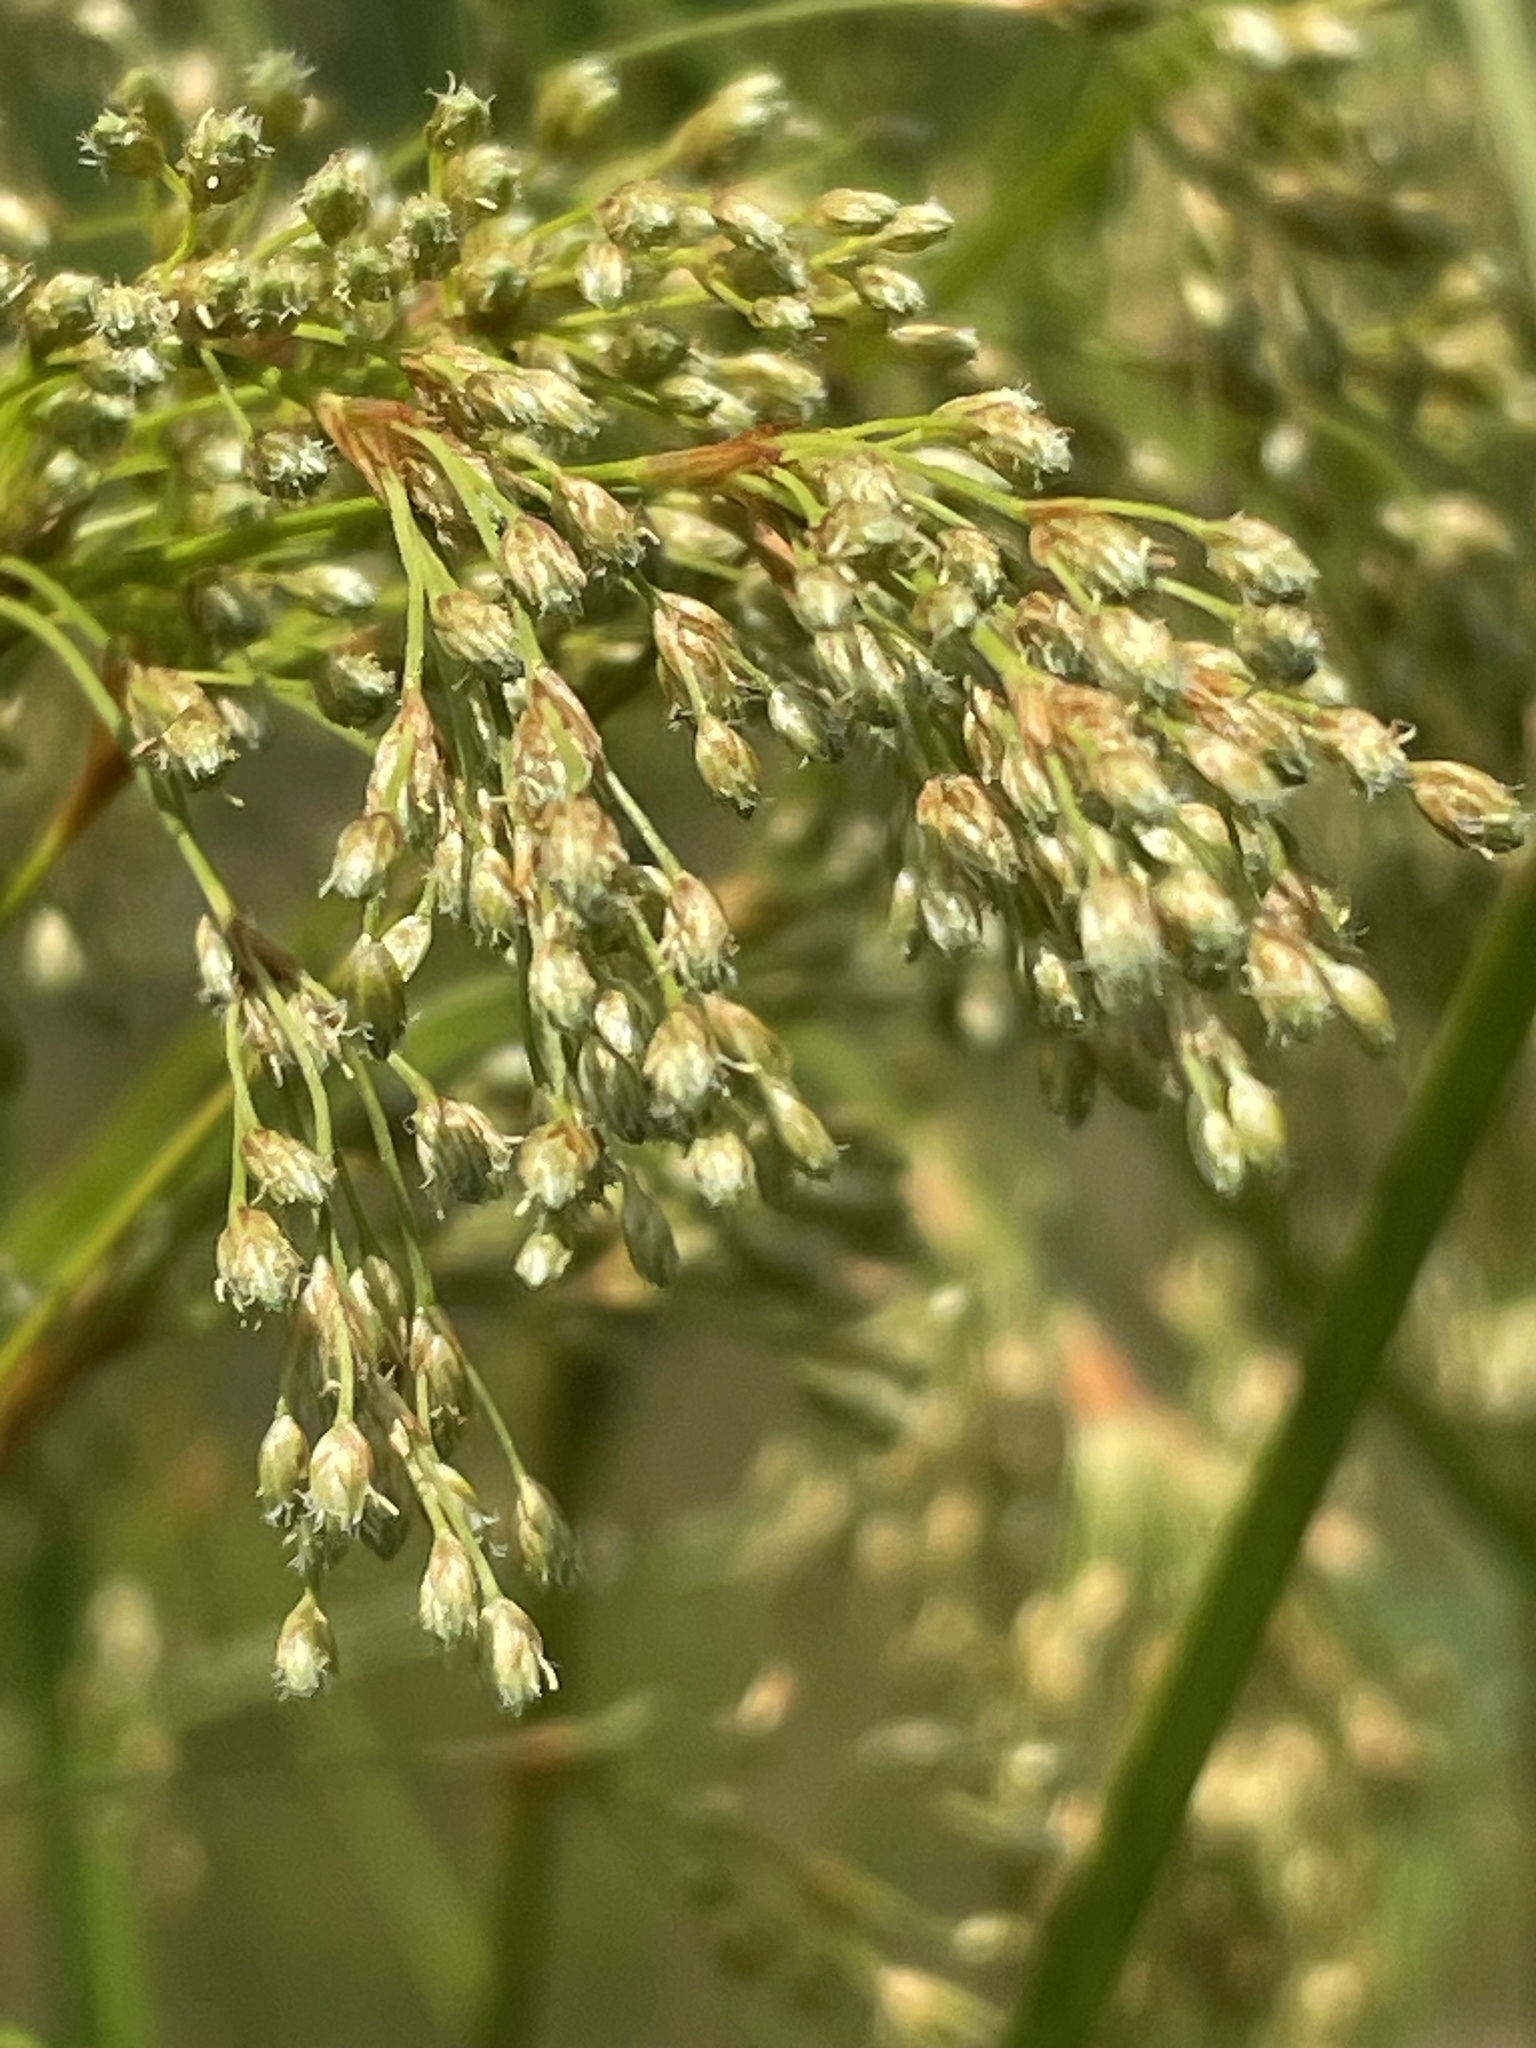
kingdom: Plantae
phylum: Tracheophyta
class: Liliopsida
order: Poales
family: Cyperaceae
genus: Scirpus
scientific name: Scirpus cyperinus
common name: Black-sheathed bulrush
